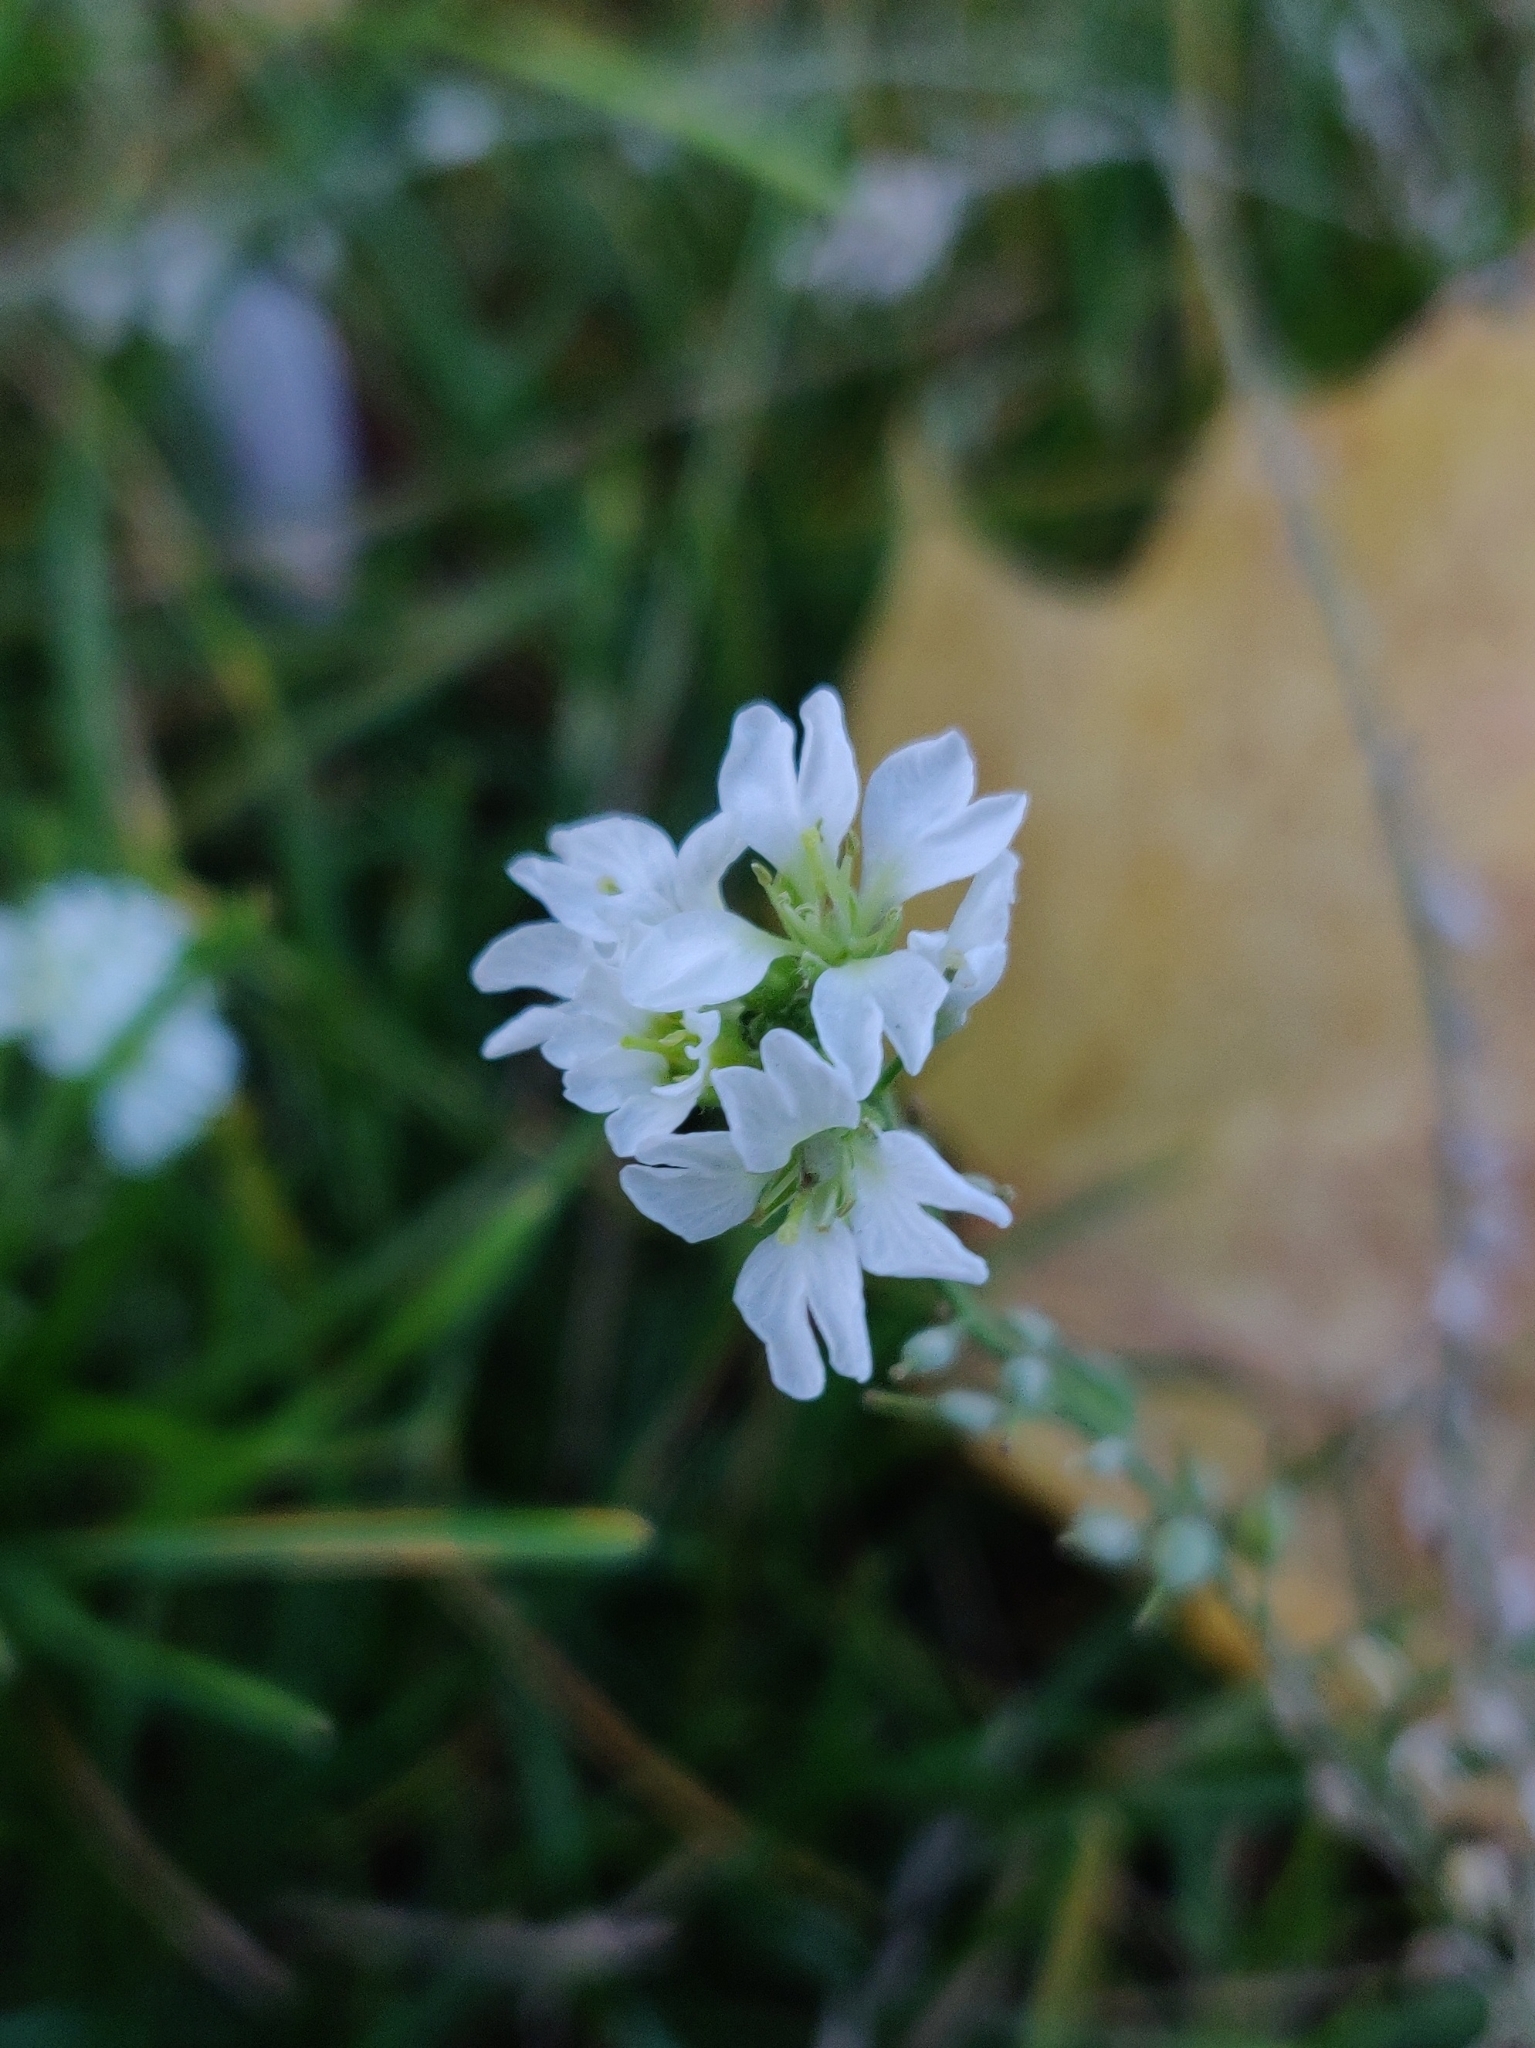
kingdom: Plantae
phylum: Tracheophyta
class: Magnoliopsida
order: Brassicales
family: Brassicaceae
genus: Berteroa
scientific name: Berteroa incana
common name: Hoary alison
